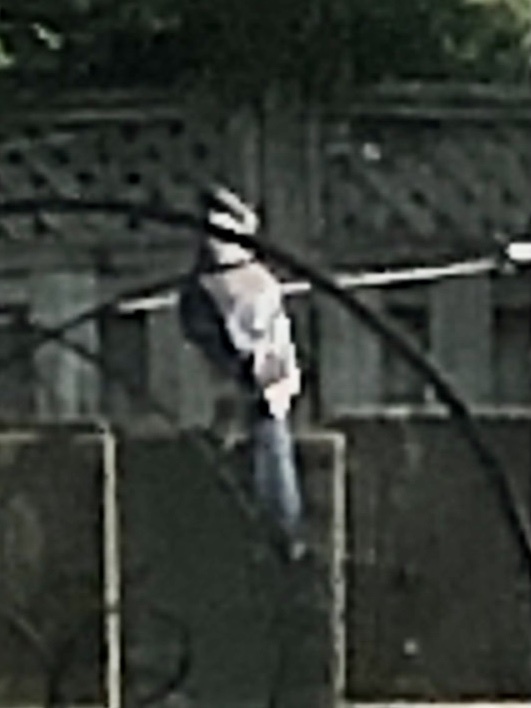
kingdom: Animalia
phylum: Chordata
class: Aves
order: Passeriformes
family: Corvidae
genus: Cyanocitta
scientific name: Cyanocitta cristata
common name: Blue jay
